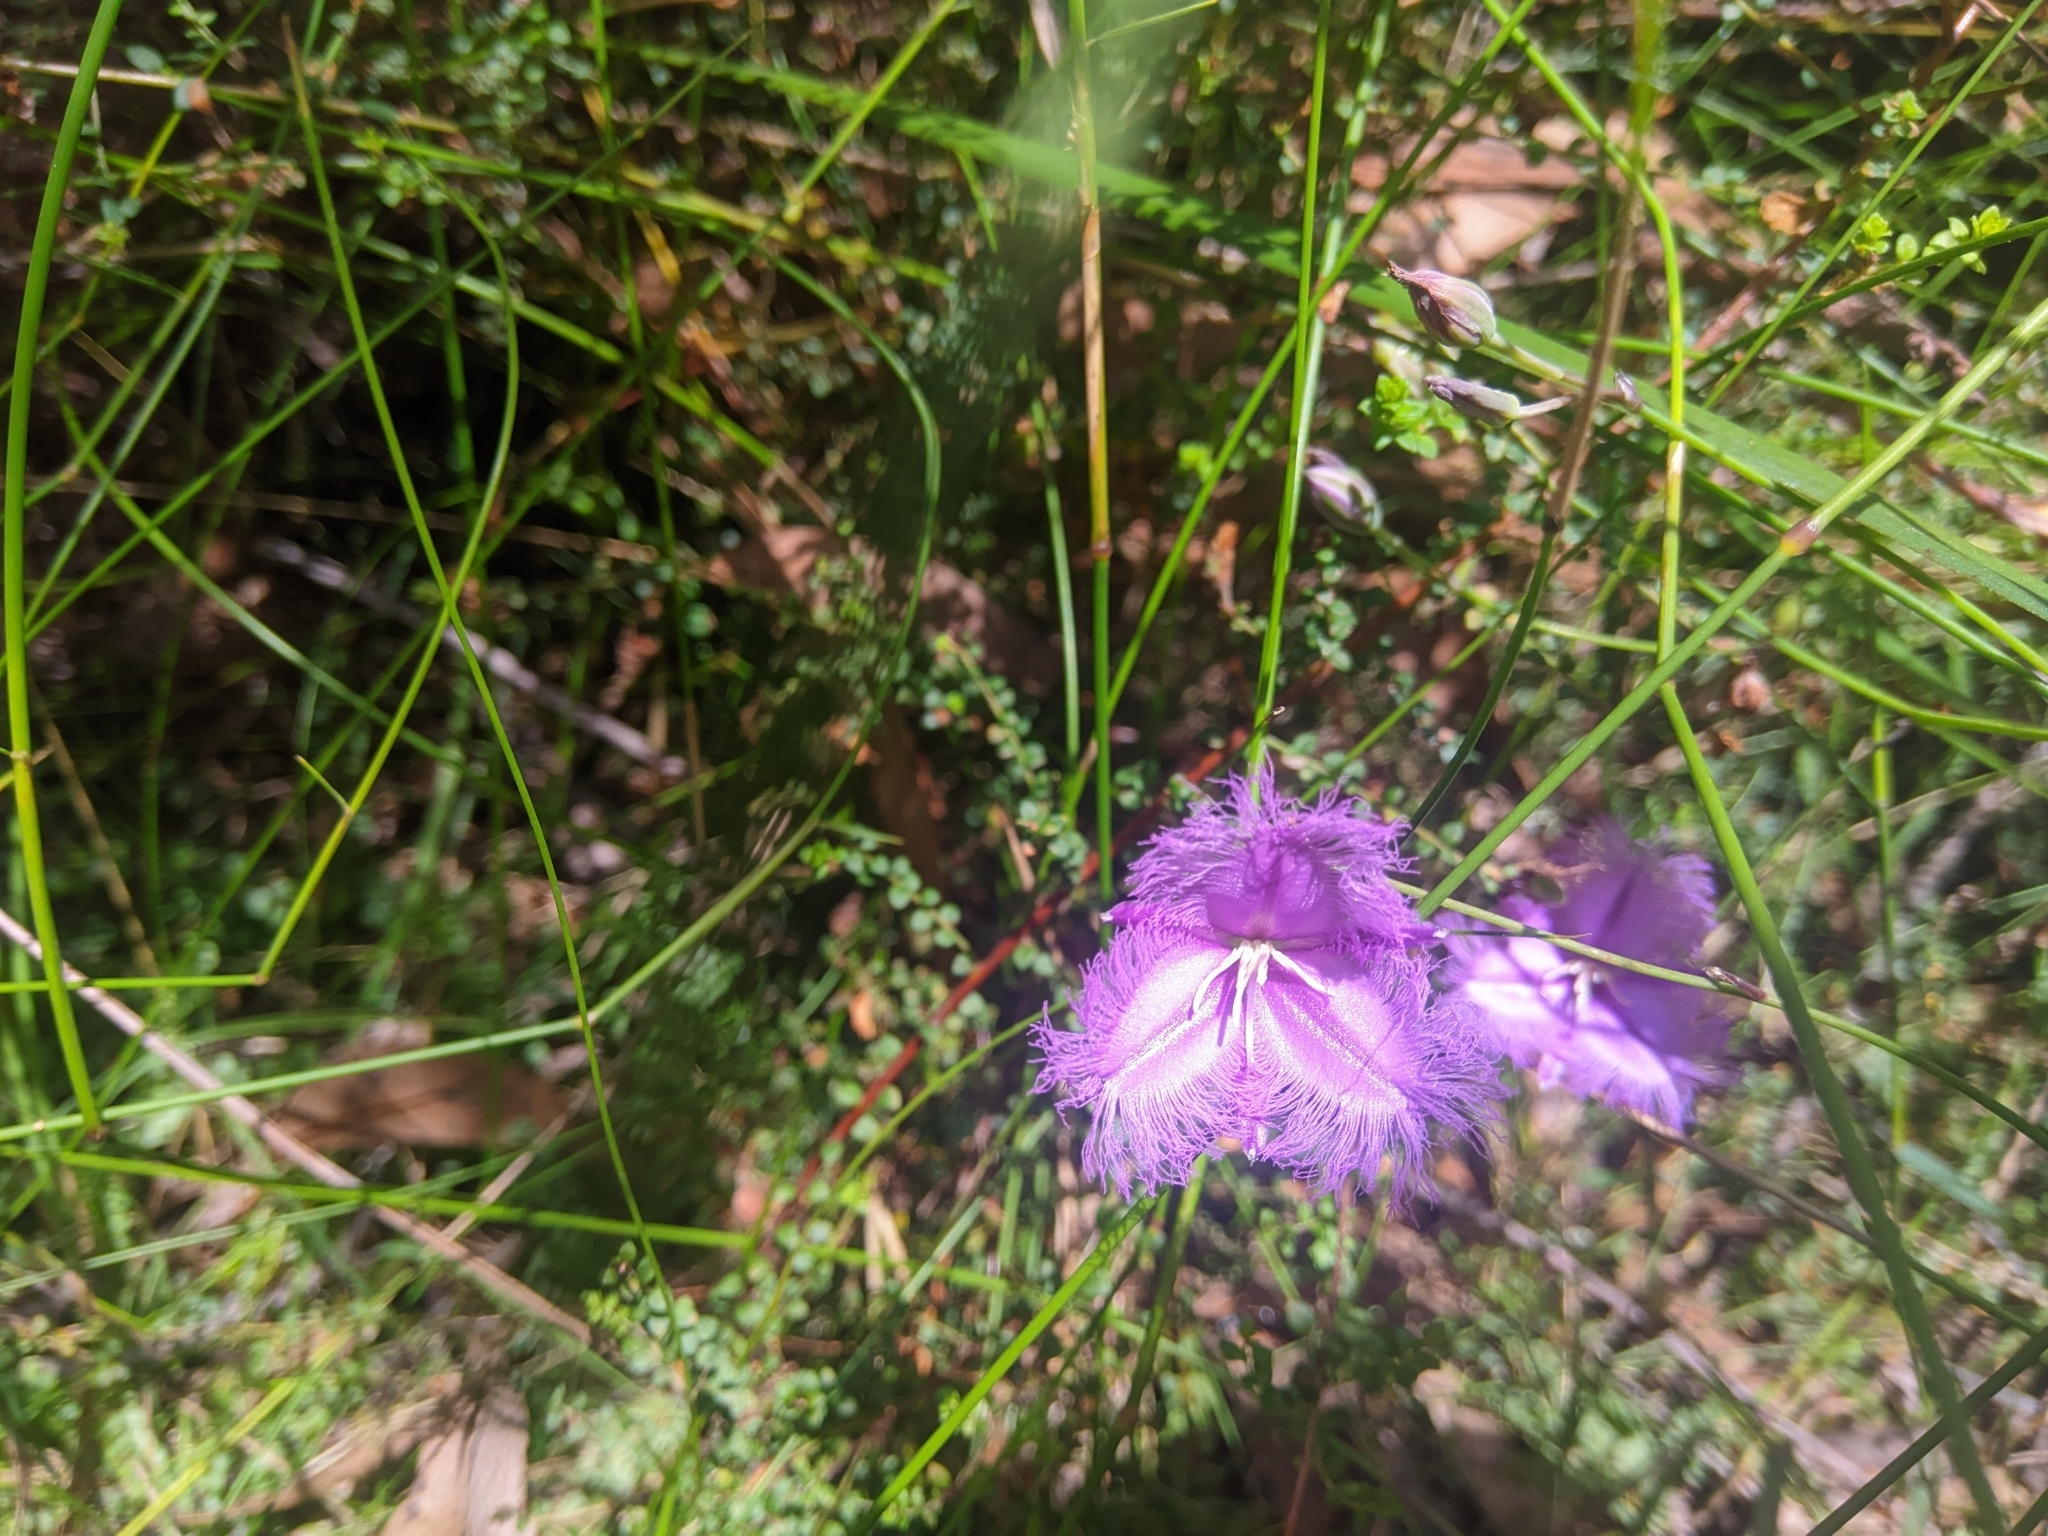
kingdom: Plantae
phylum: Tracheophyta
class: Liliopsida
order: Asparagales
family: Asparagaceae
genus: Thysanotus
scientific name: Thysanotus tuberosus
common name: Common fringed-lily
